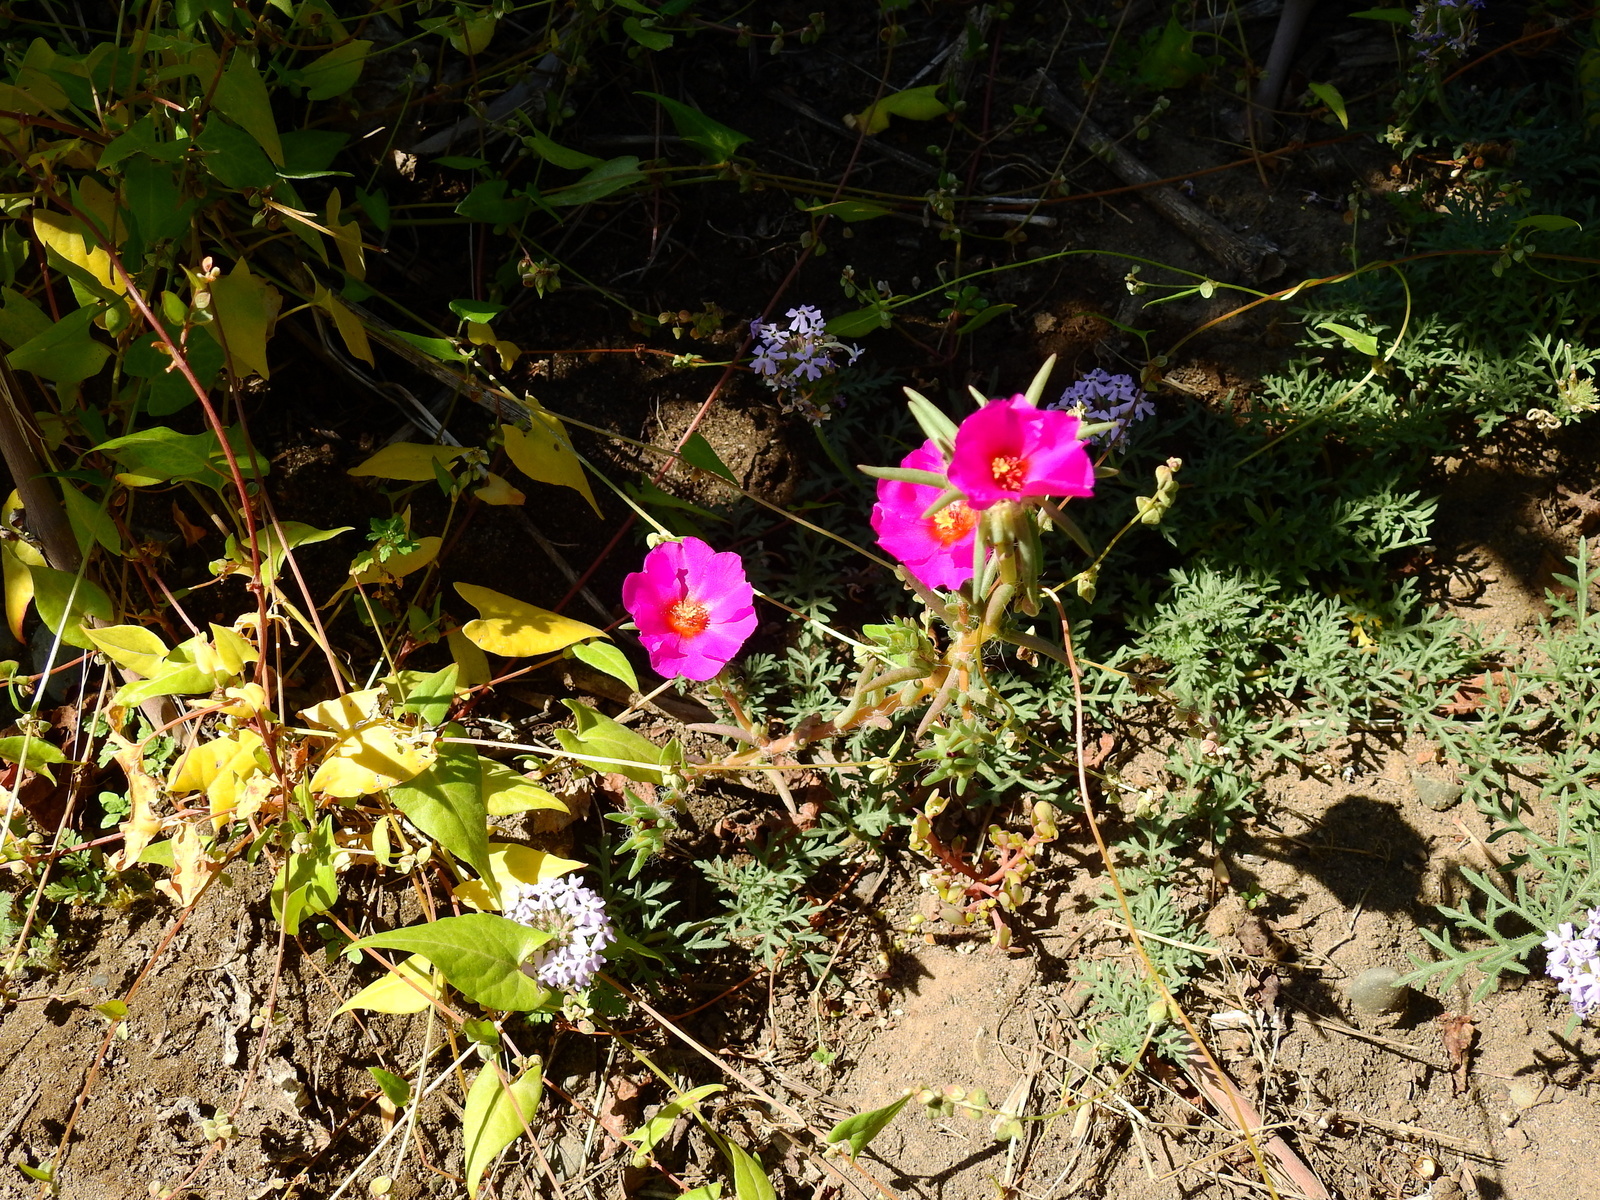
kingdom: Plantae
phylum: Tracheophyta
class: Magnoliopsida
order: Caryophyllales
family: Portulacaceae
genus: Portulaca
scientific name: Portulaca grandiflora
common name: Moss-rose
